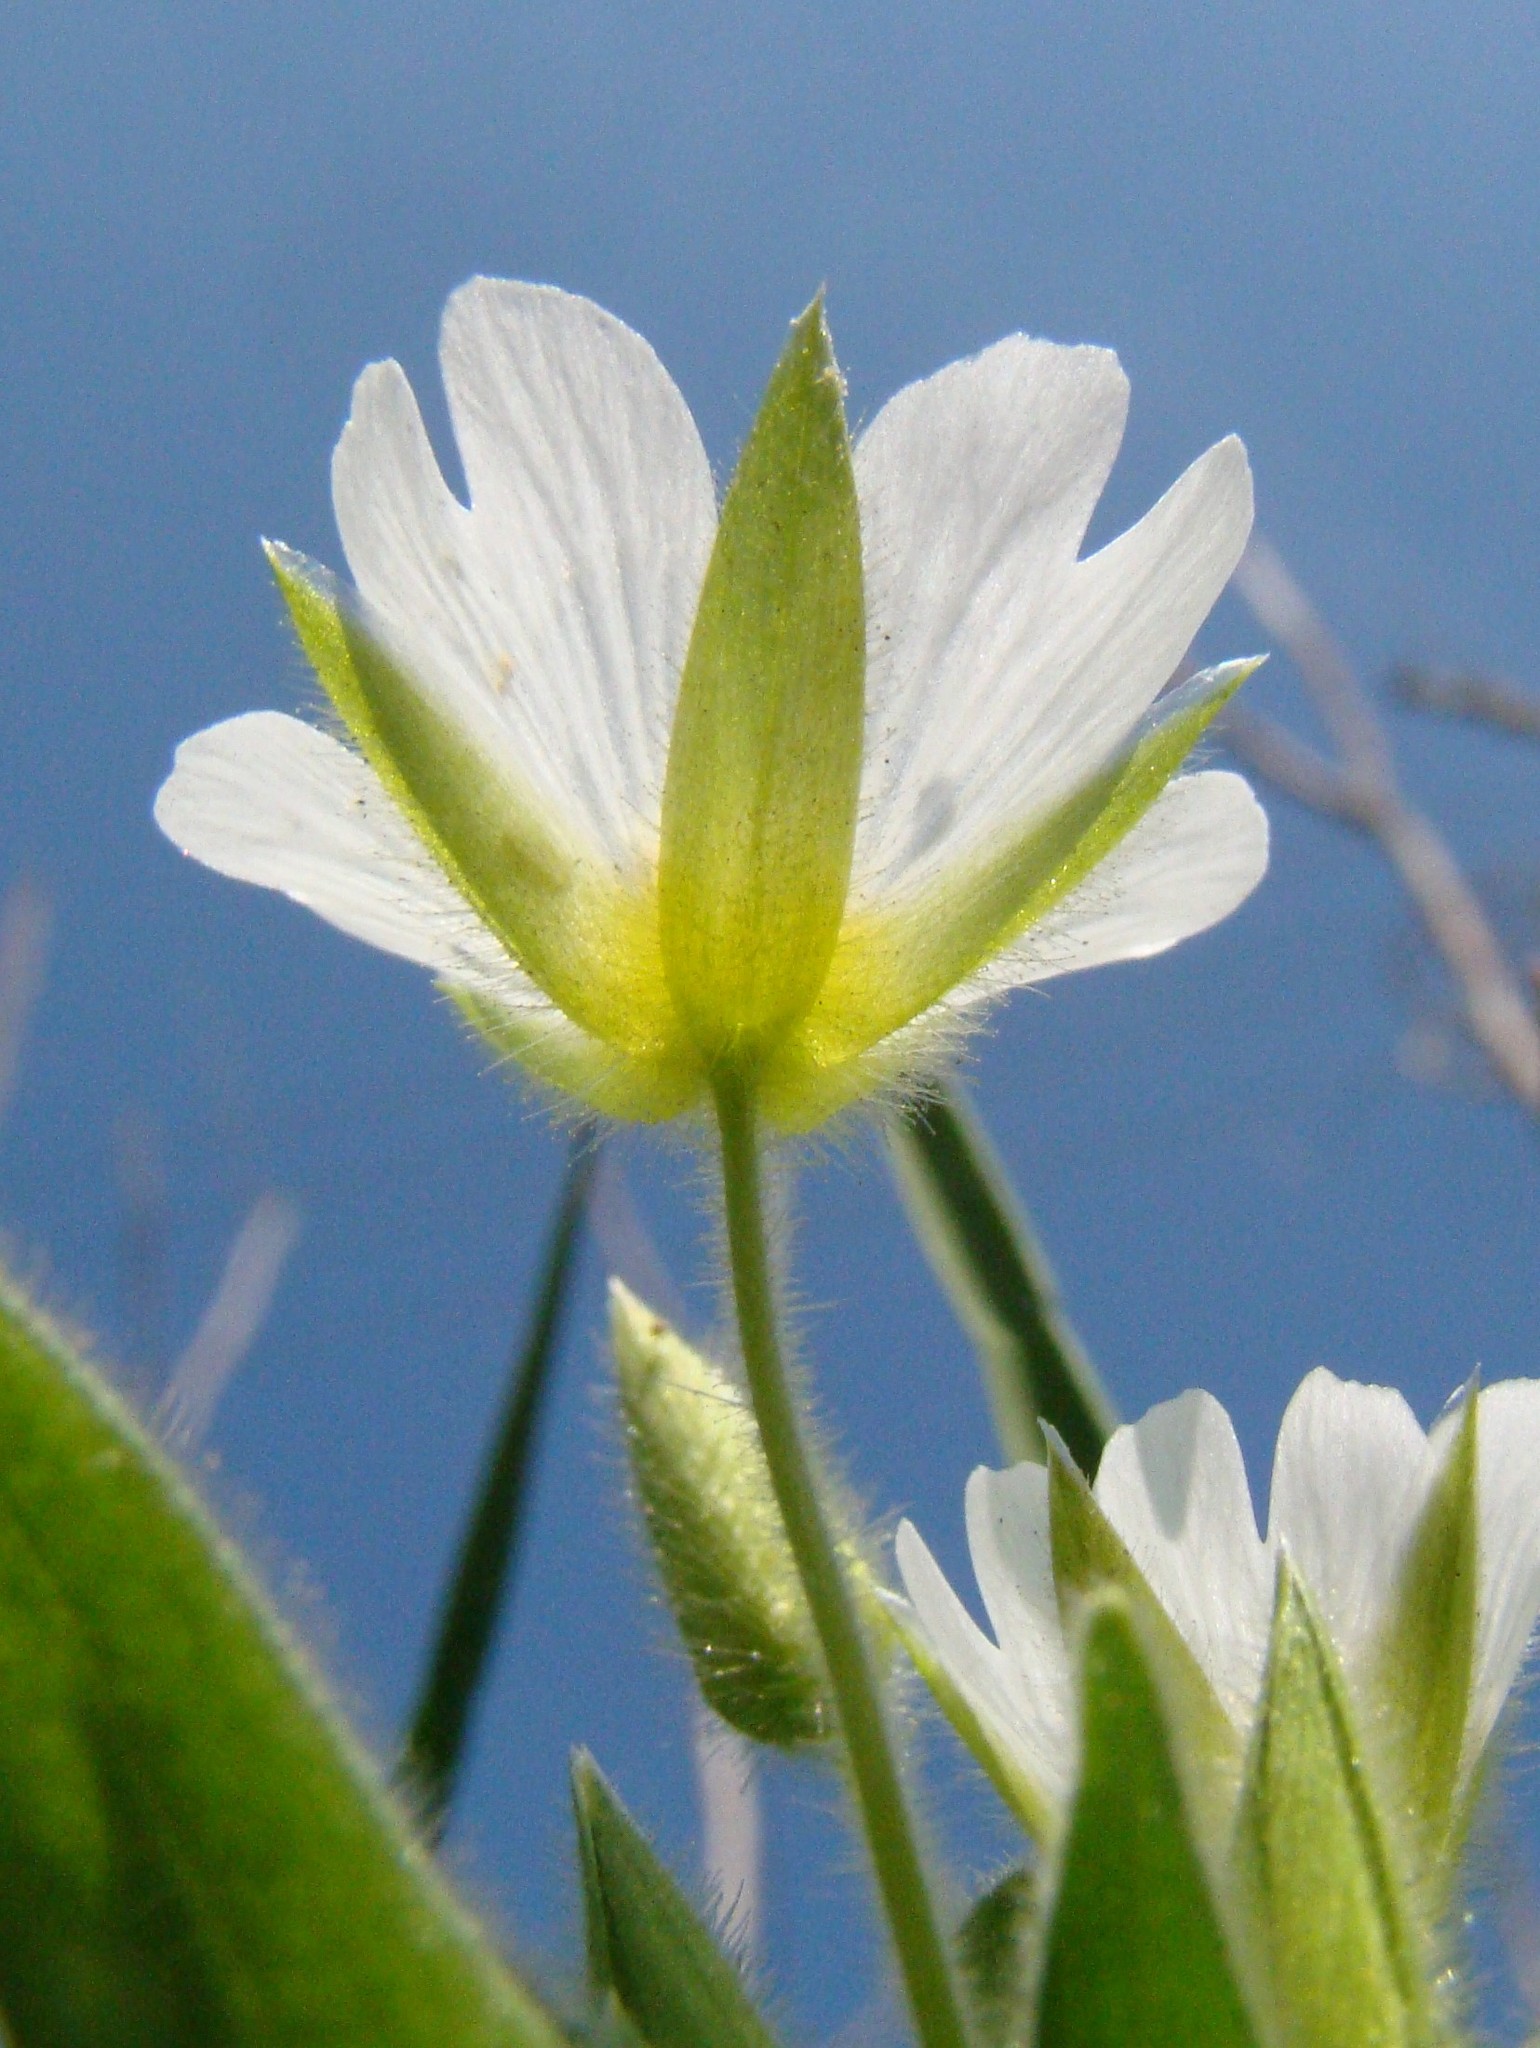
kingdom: Plantae
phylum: Tracheophyta
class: Magnoliopsida
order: Caryophyllales
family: Caryophyllaceae
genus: Cerastium
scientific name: Cerastium nemorale
